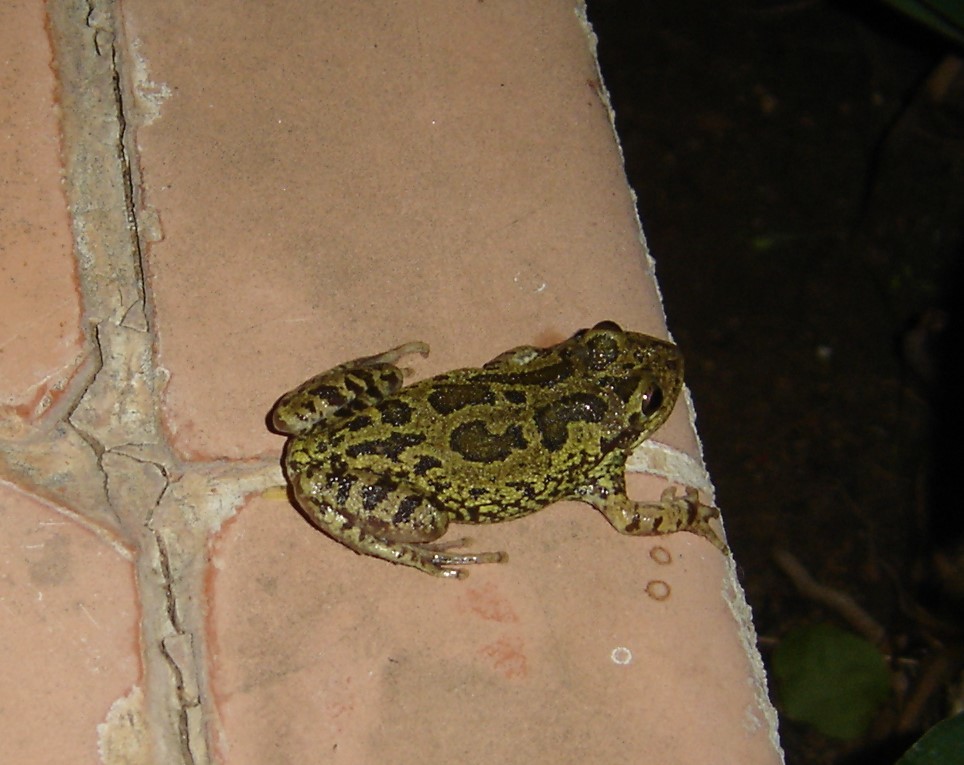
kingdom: Animalia
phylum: Chordata
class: Amphibia
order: Anura
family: Hylidae
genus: Smilisca
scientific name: Smilisca fodiens
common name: Lowland burrowing treefrog
